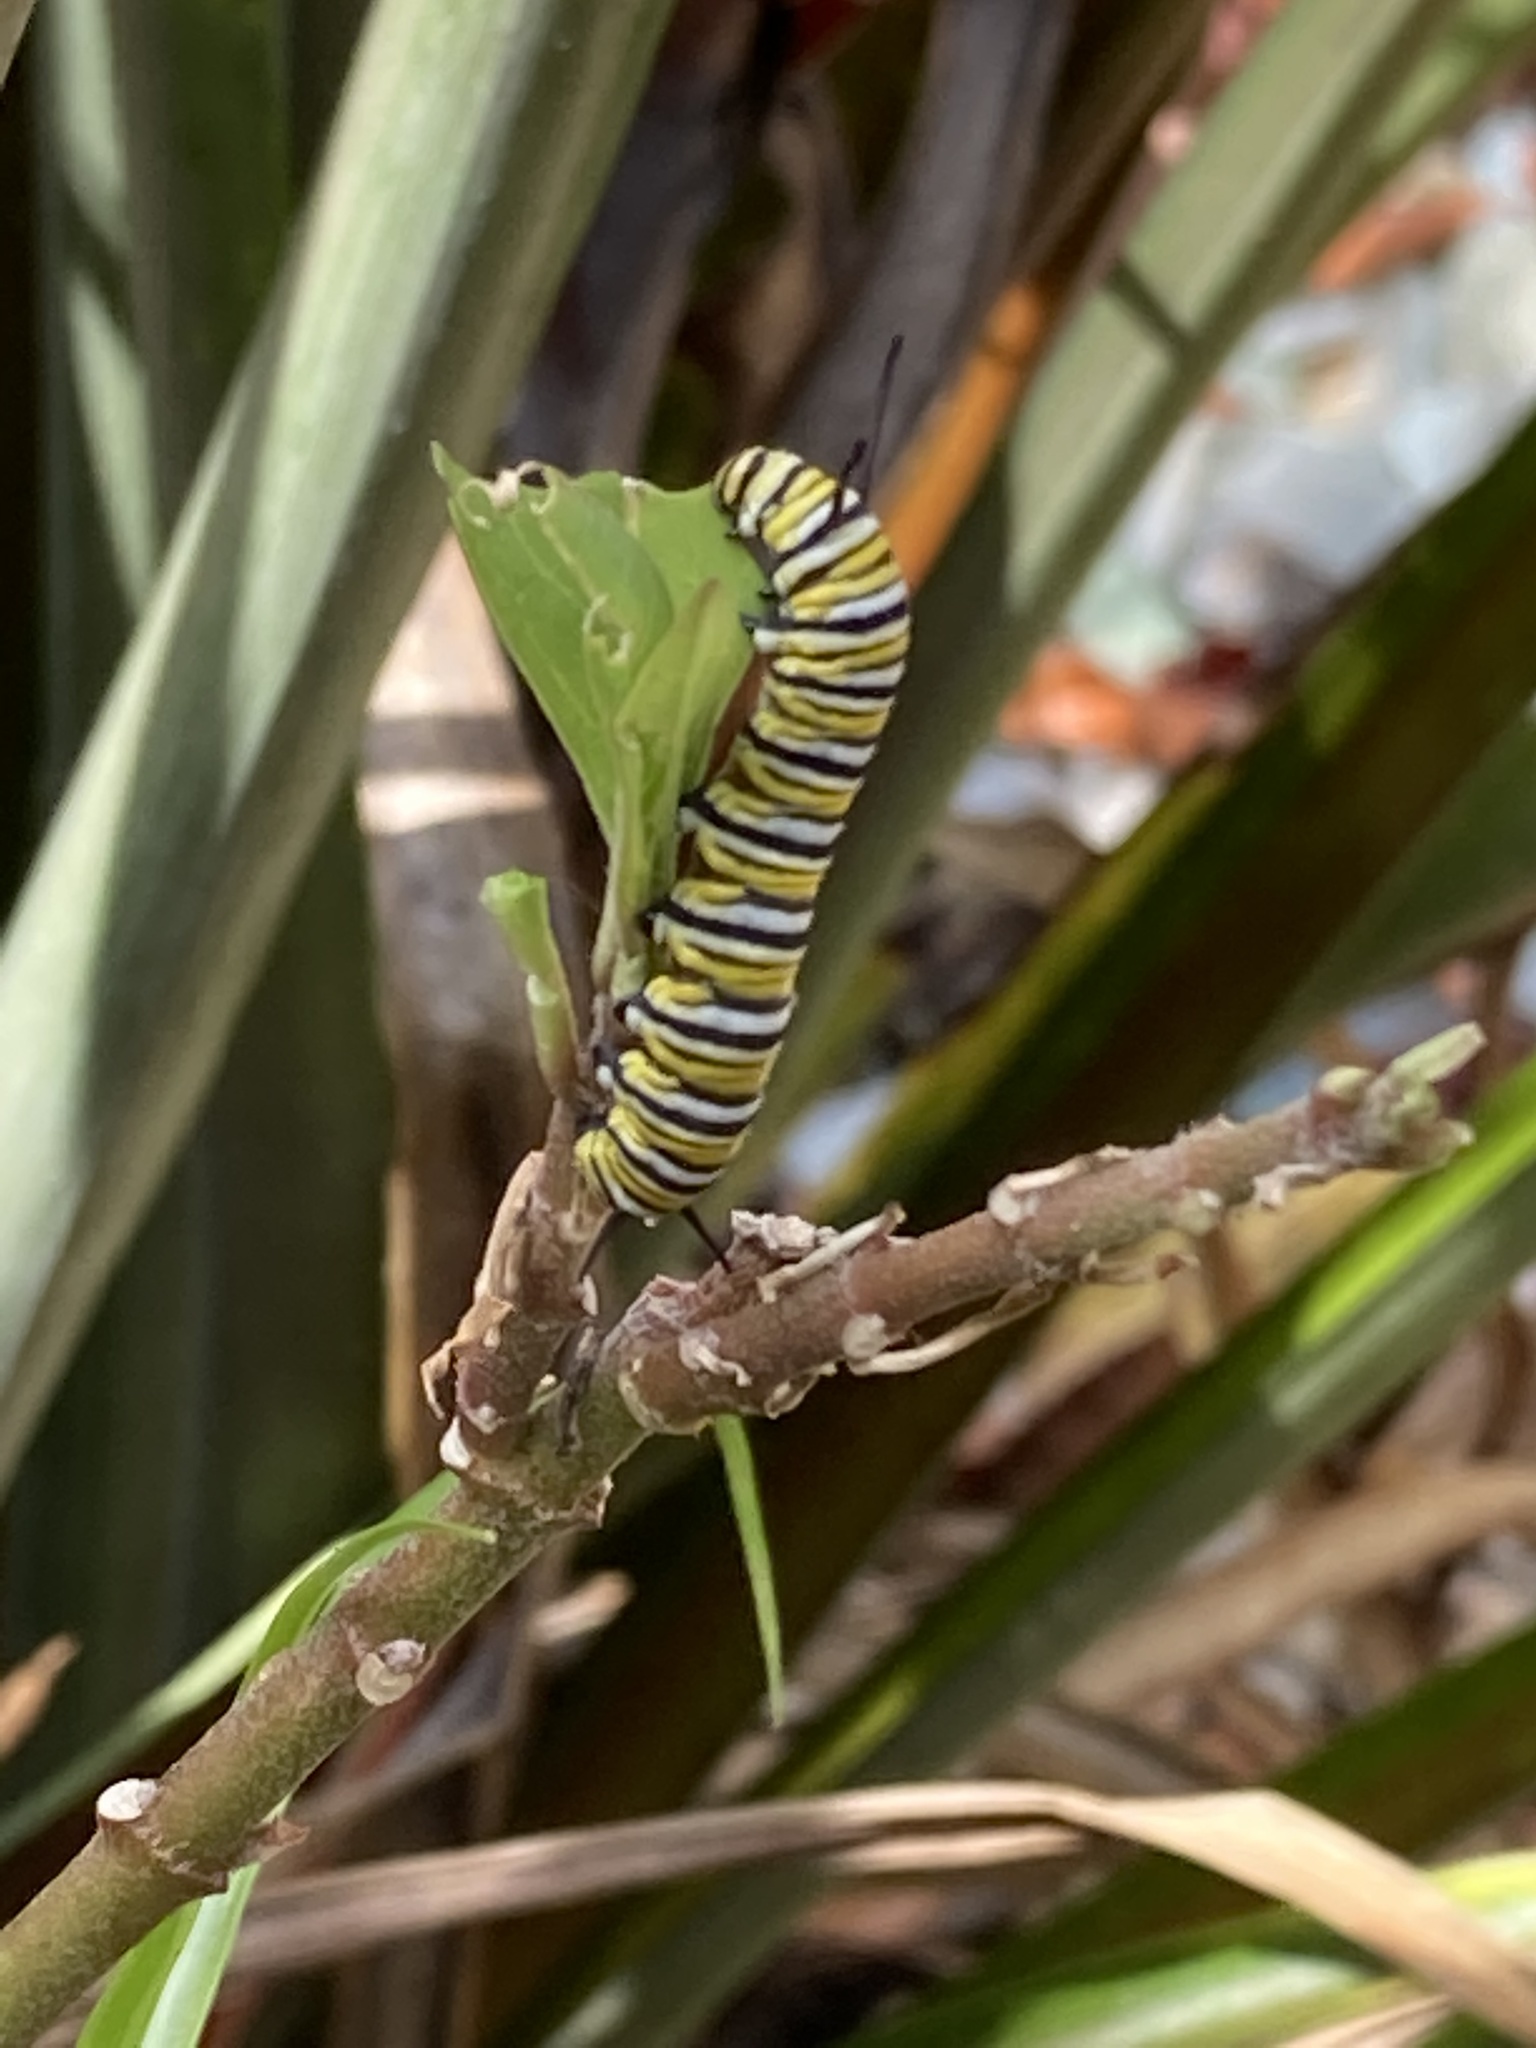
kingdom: Animalia
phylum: Arthropoda
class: Insecta
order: Lepidoptera
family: Nymphalidae
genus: Danaus
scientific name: Danaus plexippus
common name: Monarch
